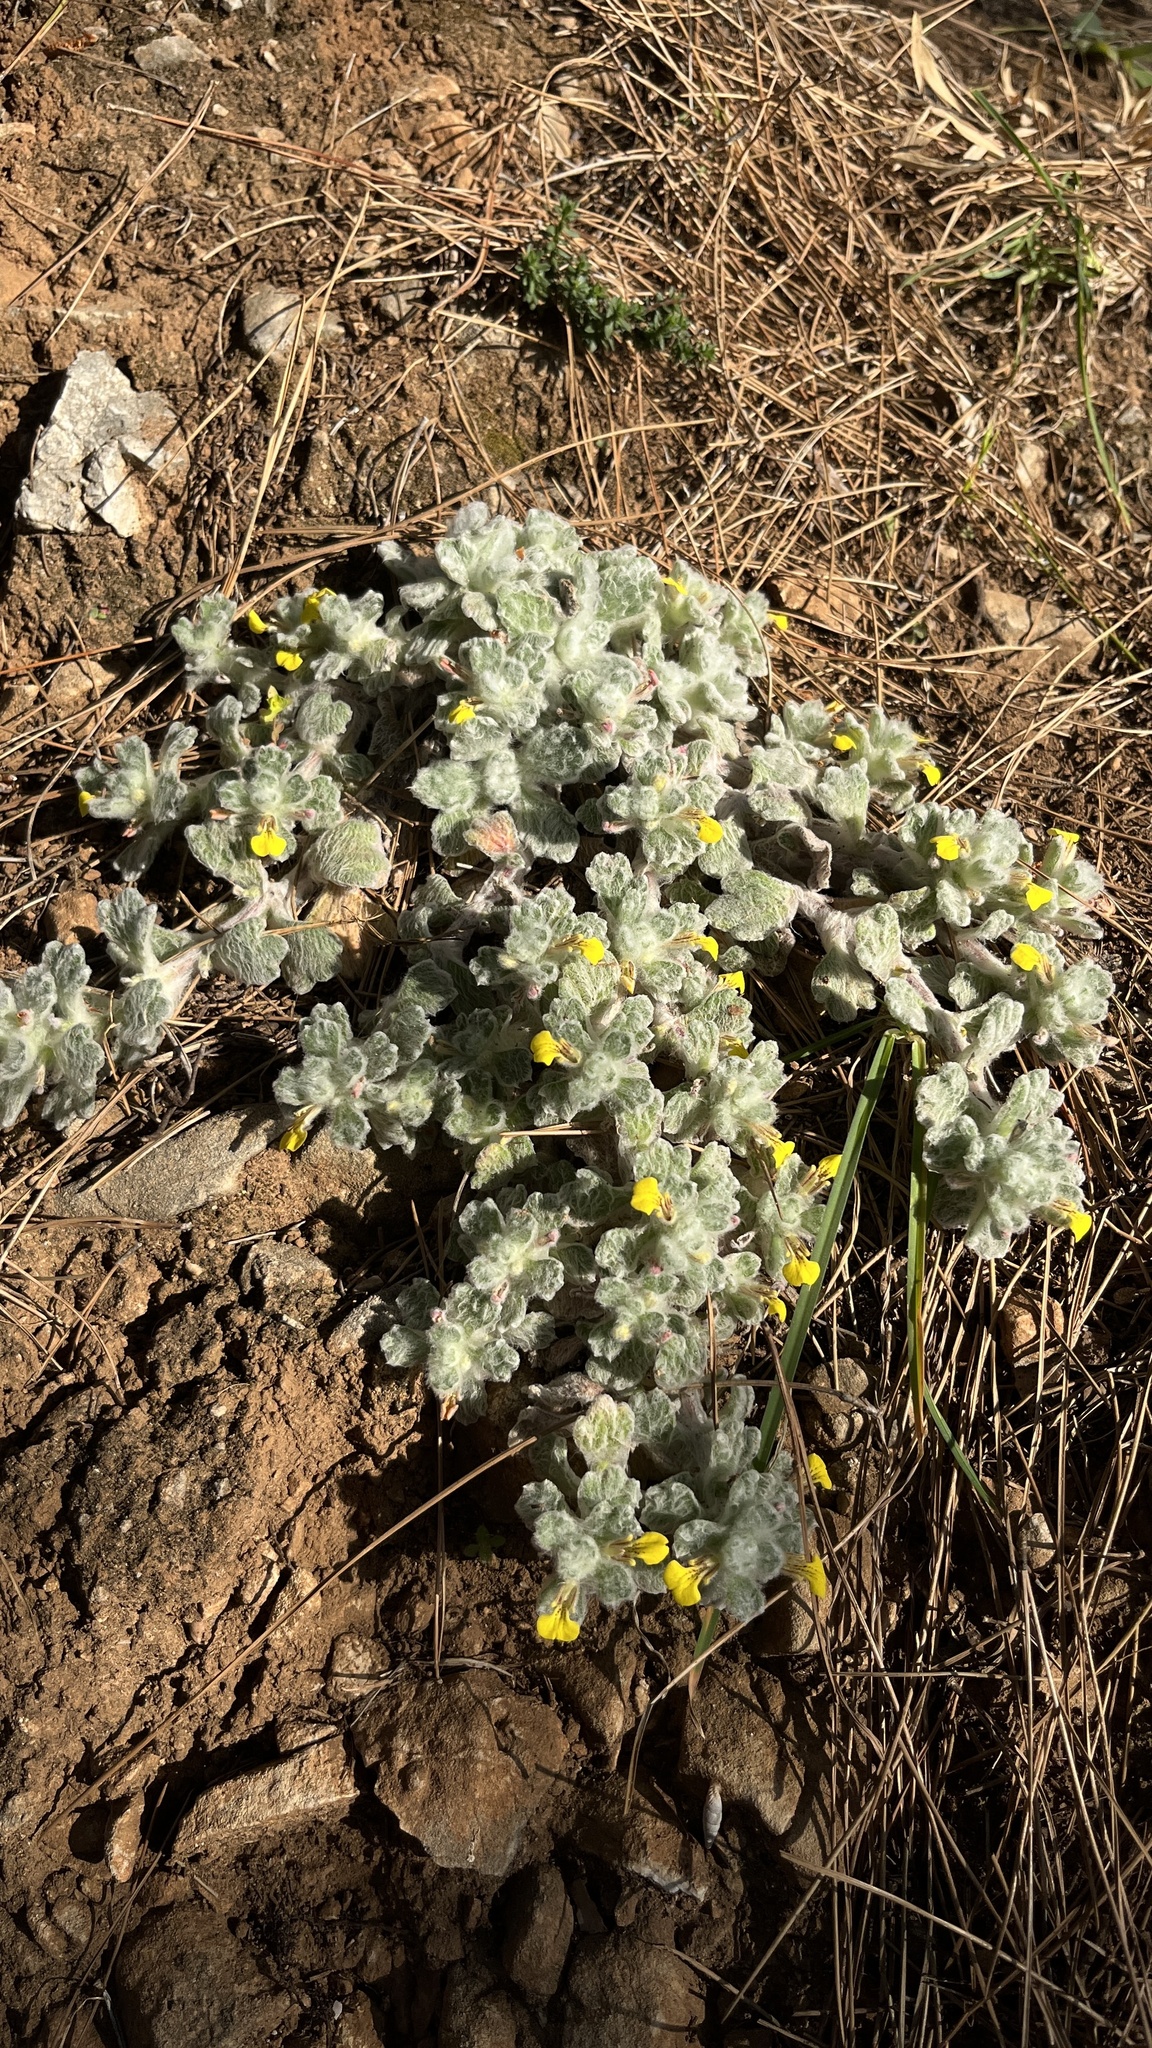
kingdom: Plantae
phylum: Tracheophyta
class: Magnoliopsida
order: Lamiales
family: Lamiaceae
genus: Ajuga
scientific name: Ajuga bombycina
